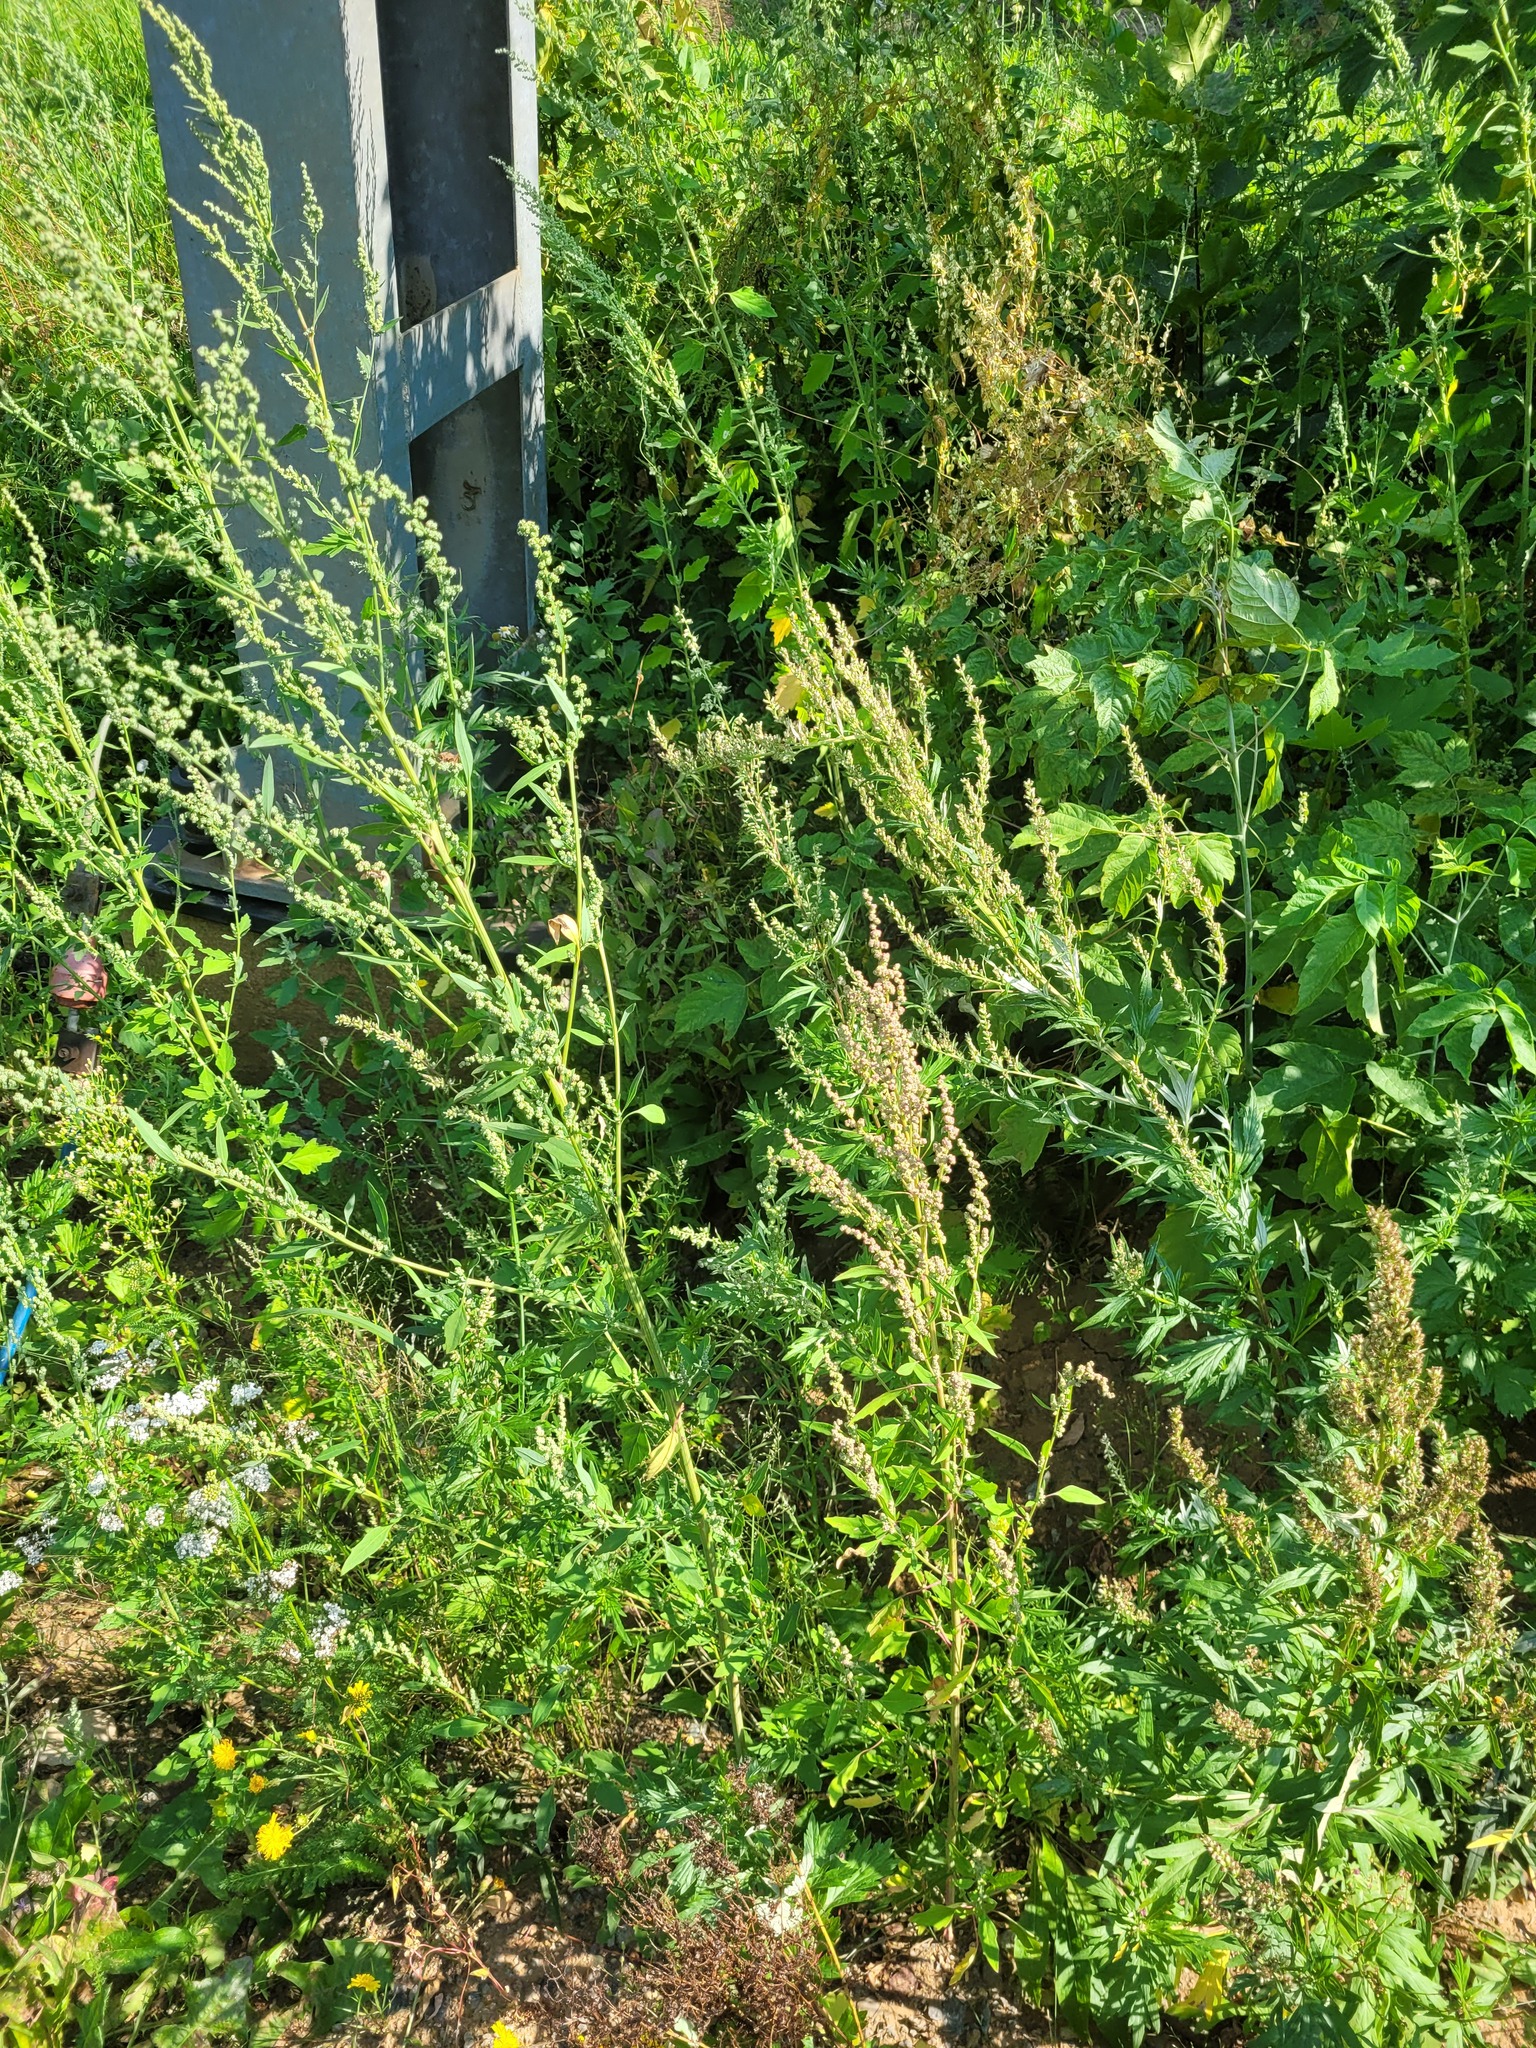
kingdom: Plantae
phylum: Tracheophyta
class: Magnoliopsida
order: Asterales
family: Asteraceae
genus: Artemisia
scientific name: Artemisia vulgaris
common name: Mugwort
